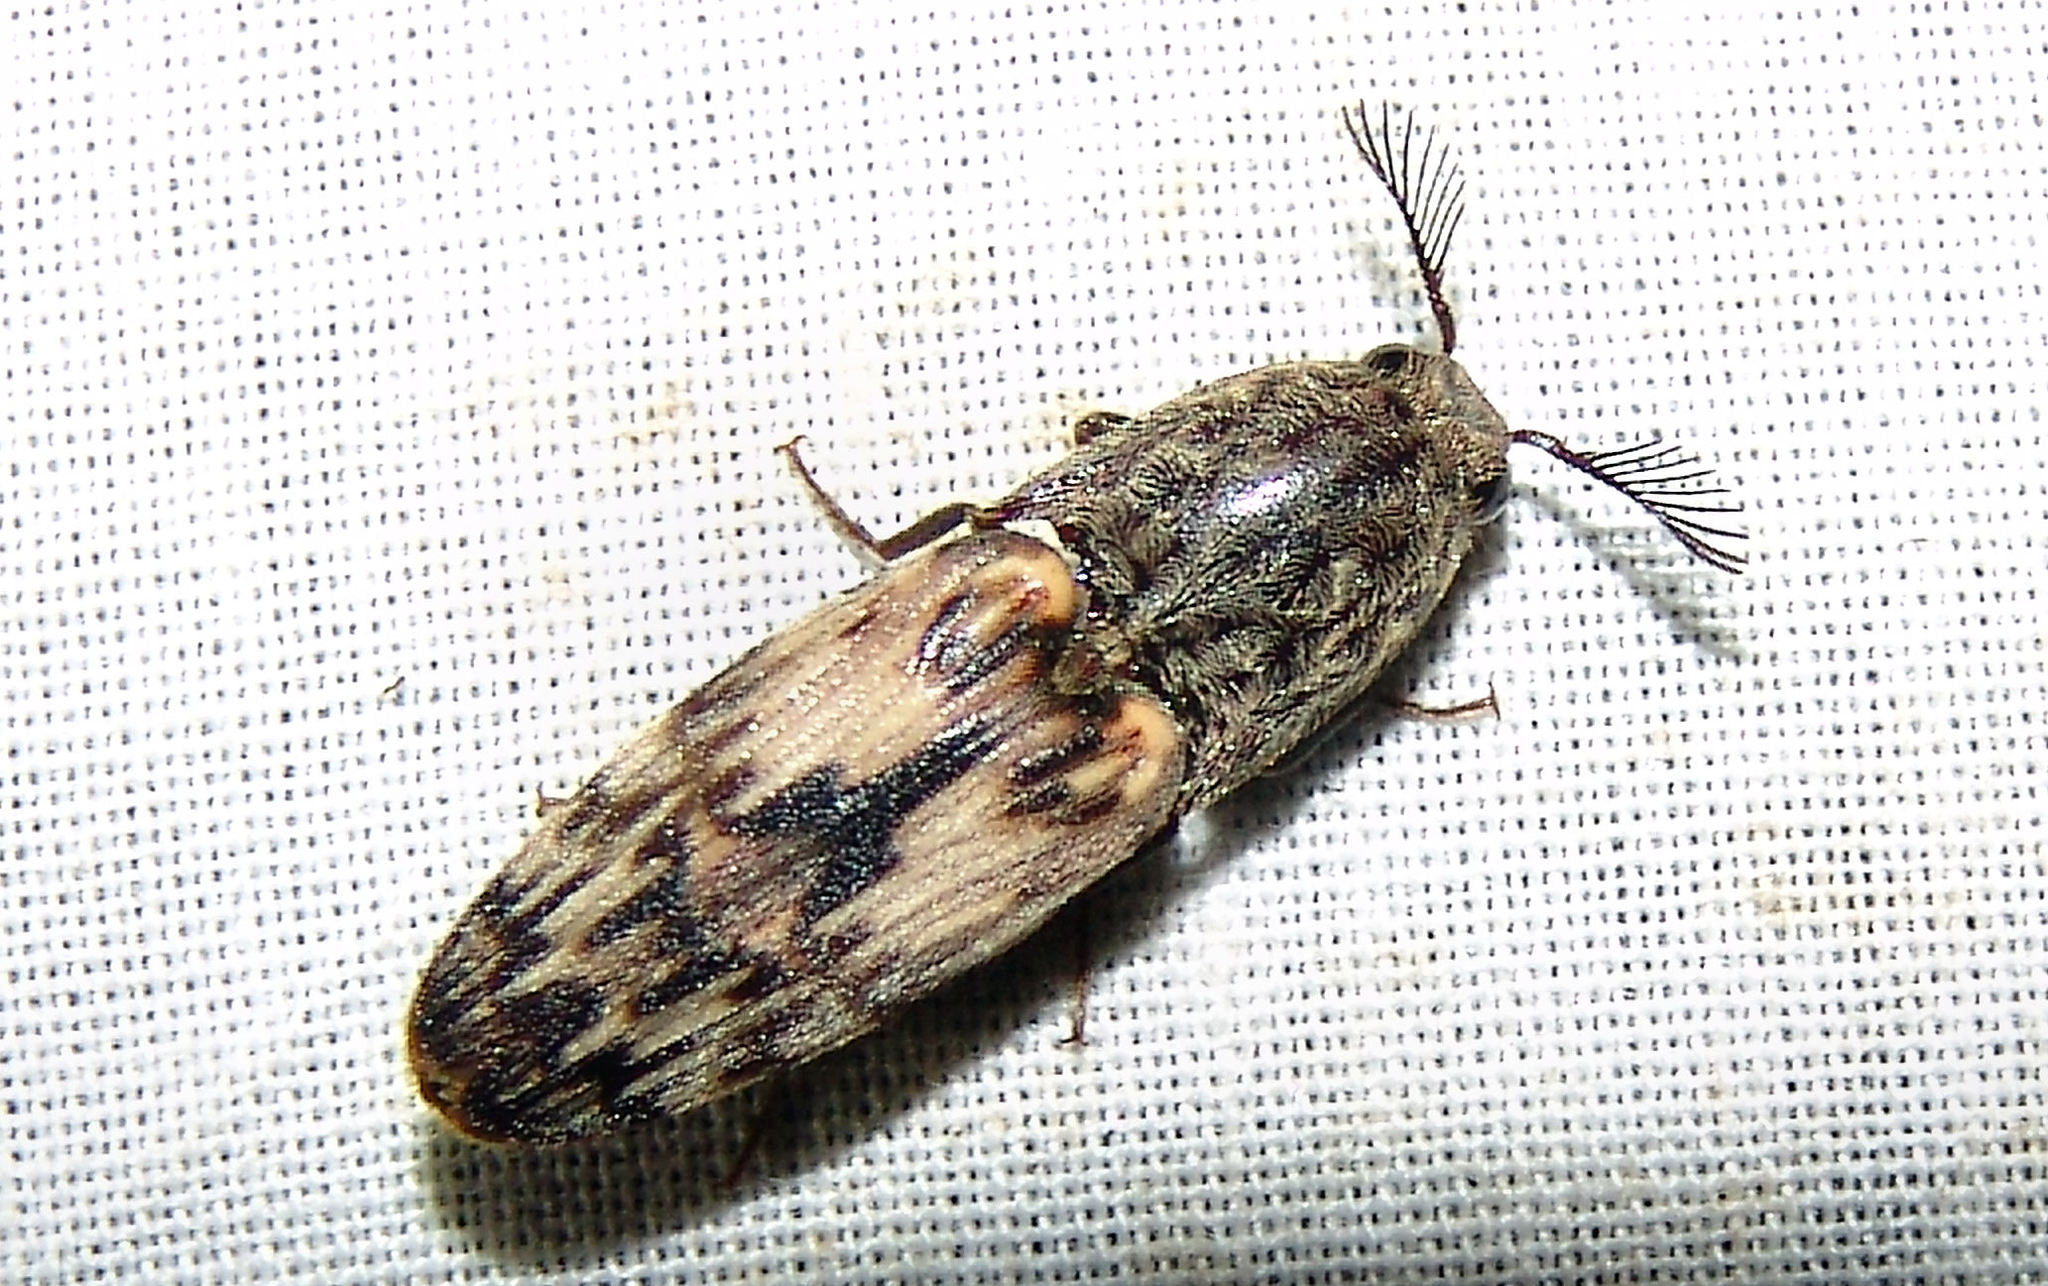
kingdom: Animalia
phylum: Arthropoda
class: Insecta
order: Coleoptera
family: Elateridae
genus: Pherhimius
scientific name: Pherhimius fascicularis
